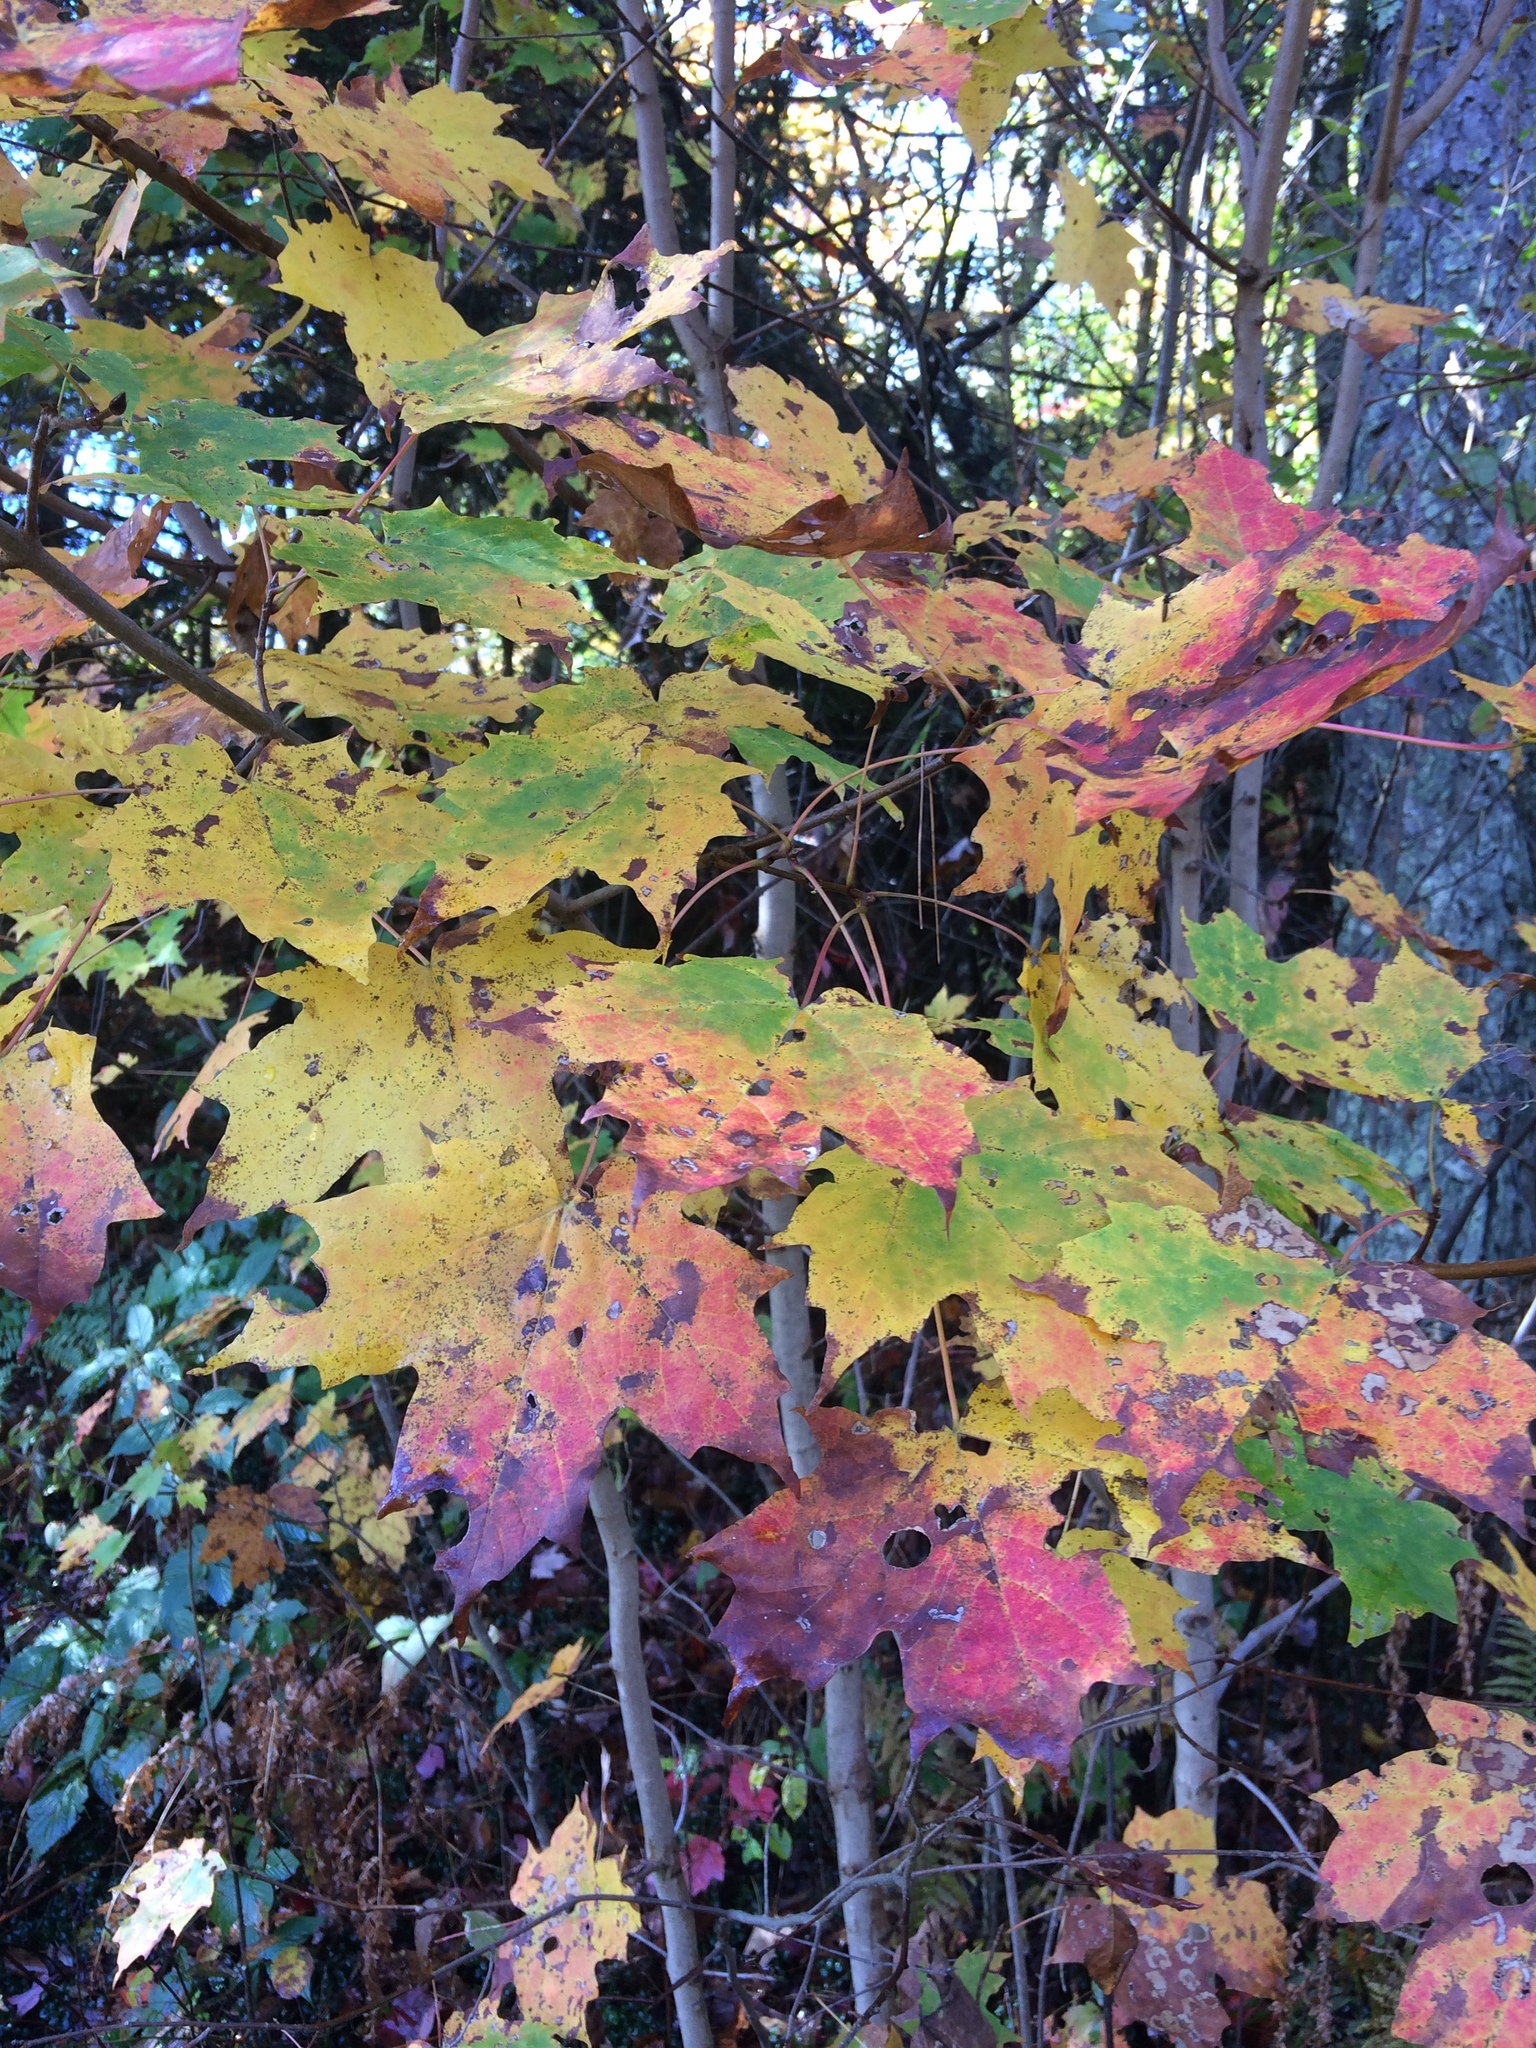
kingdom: Plantae
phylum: Tracheophyta
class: Magnoliopsida
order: Sapindales
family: Sapindaceae
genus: Acer
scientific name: Acer saccharum
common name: Sugar maple
